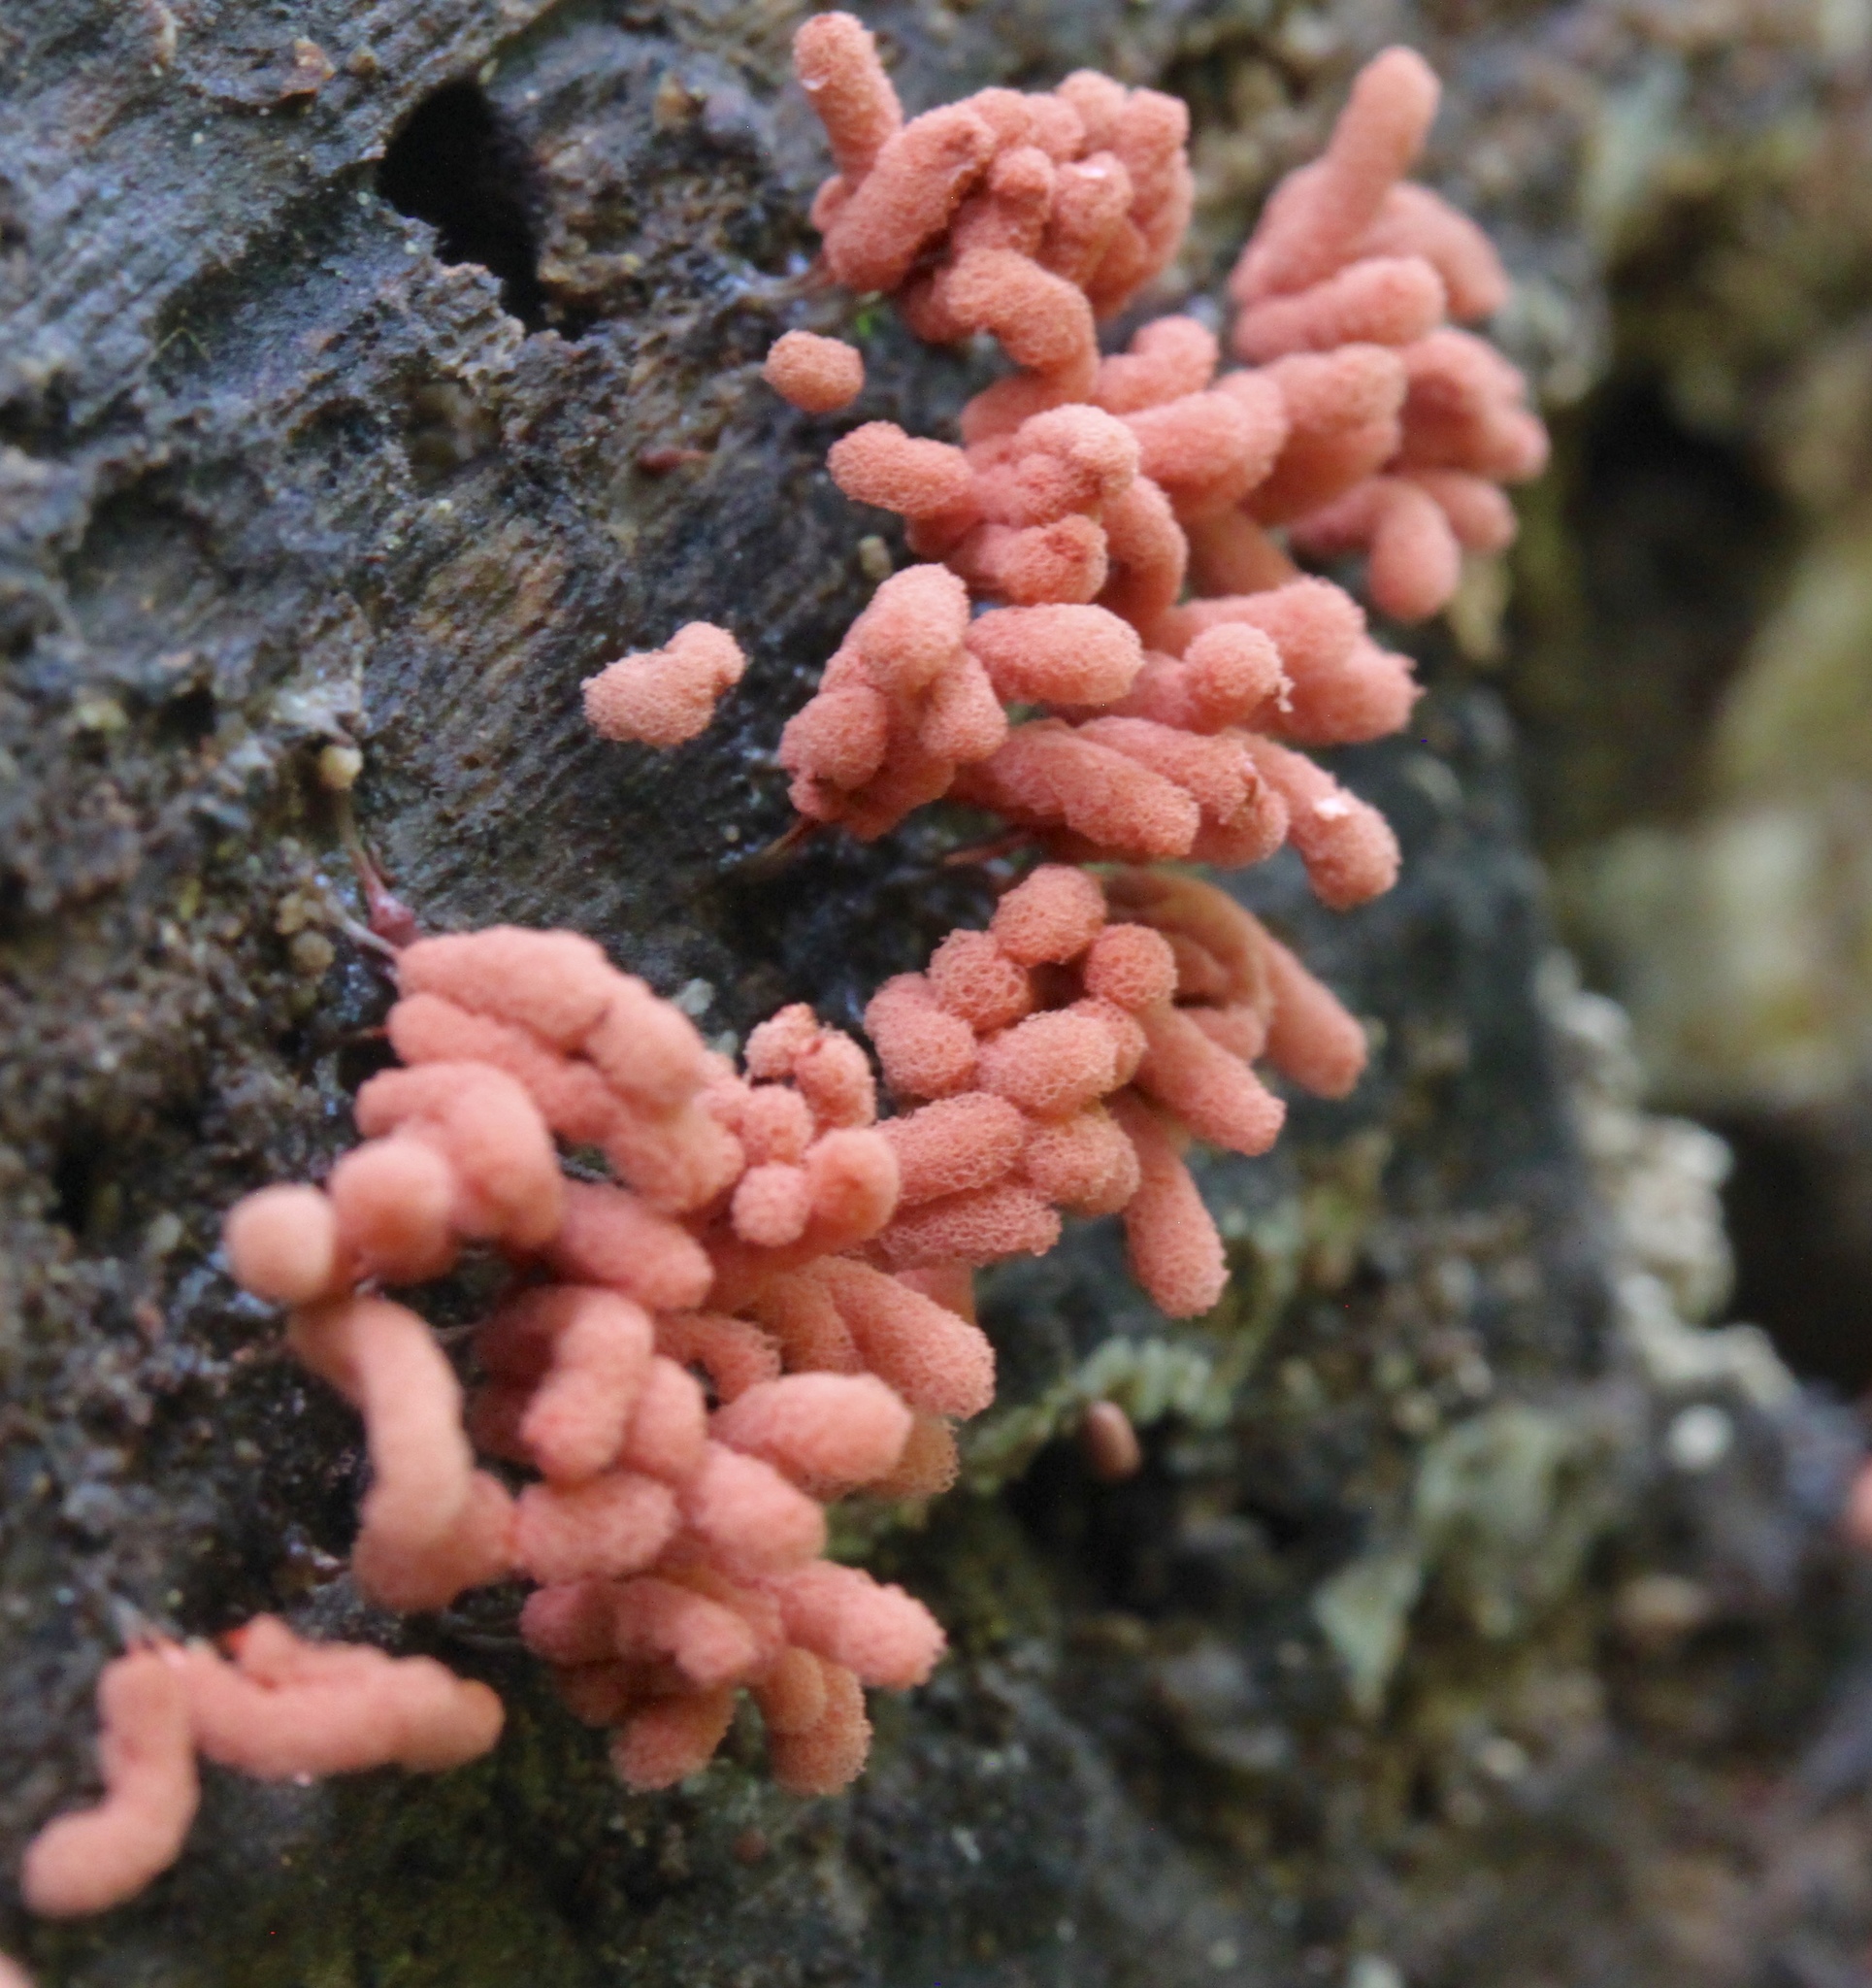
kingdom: Protozoa
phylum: Mycetozoa
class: Myxomycetes
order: Trichiales
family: Arcyriaceae
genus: Arcyria
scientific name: Arcyria denudata
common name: Carnival candy slime mold
